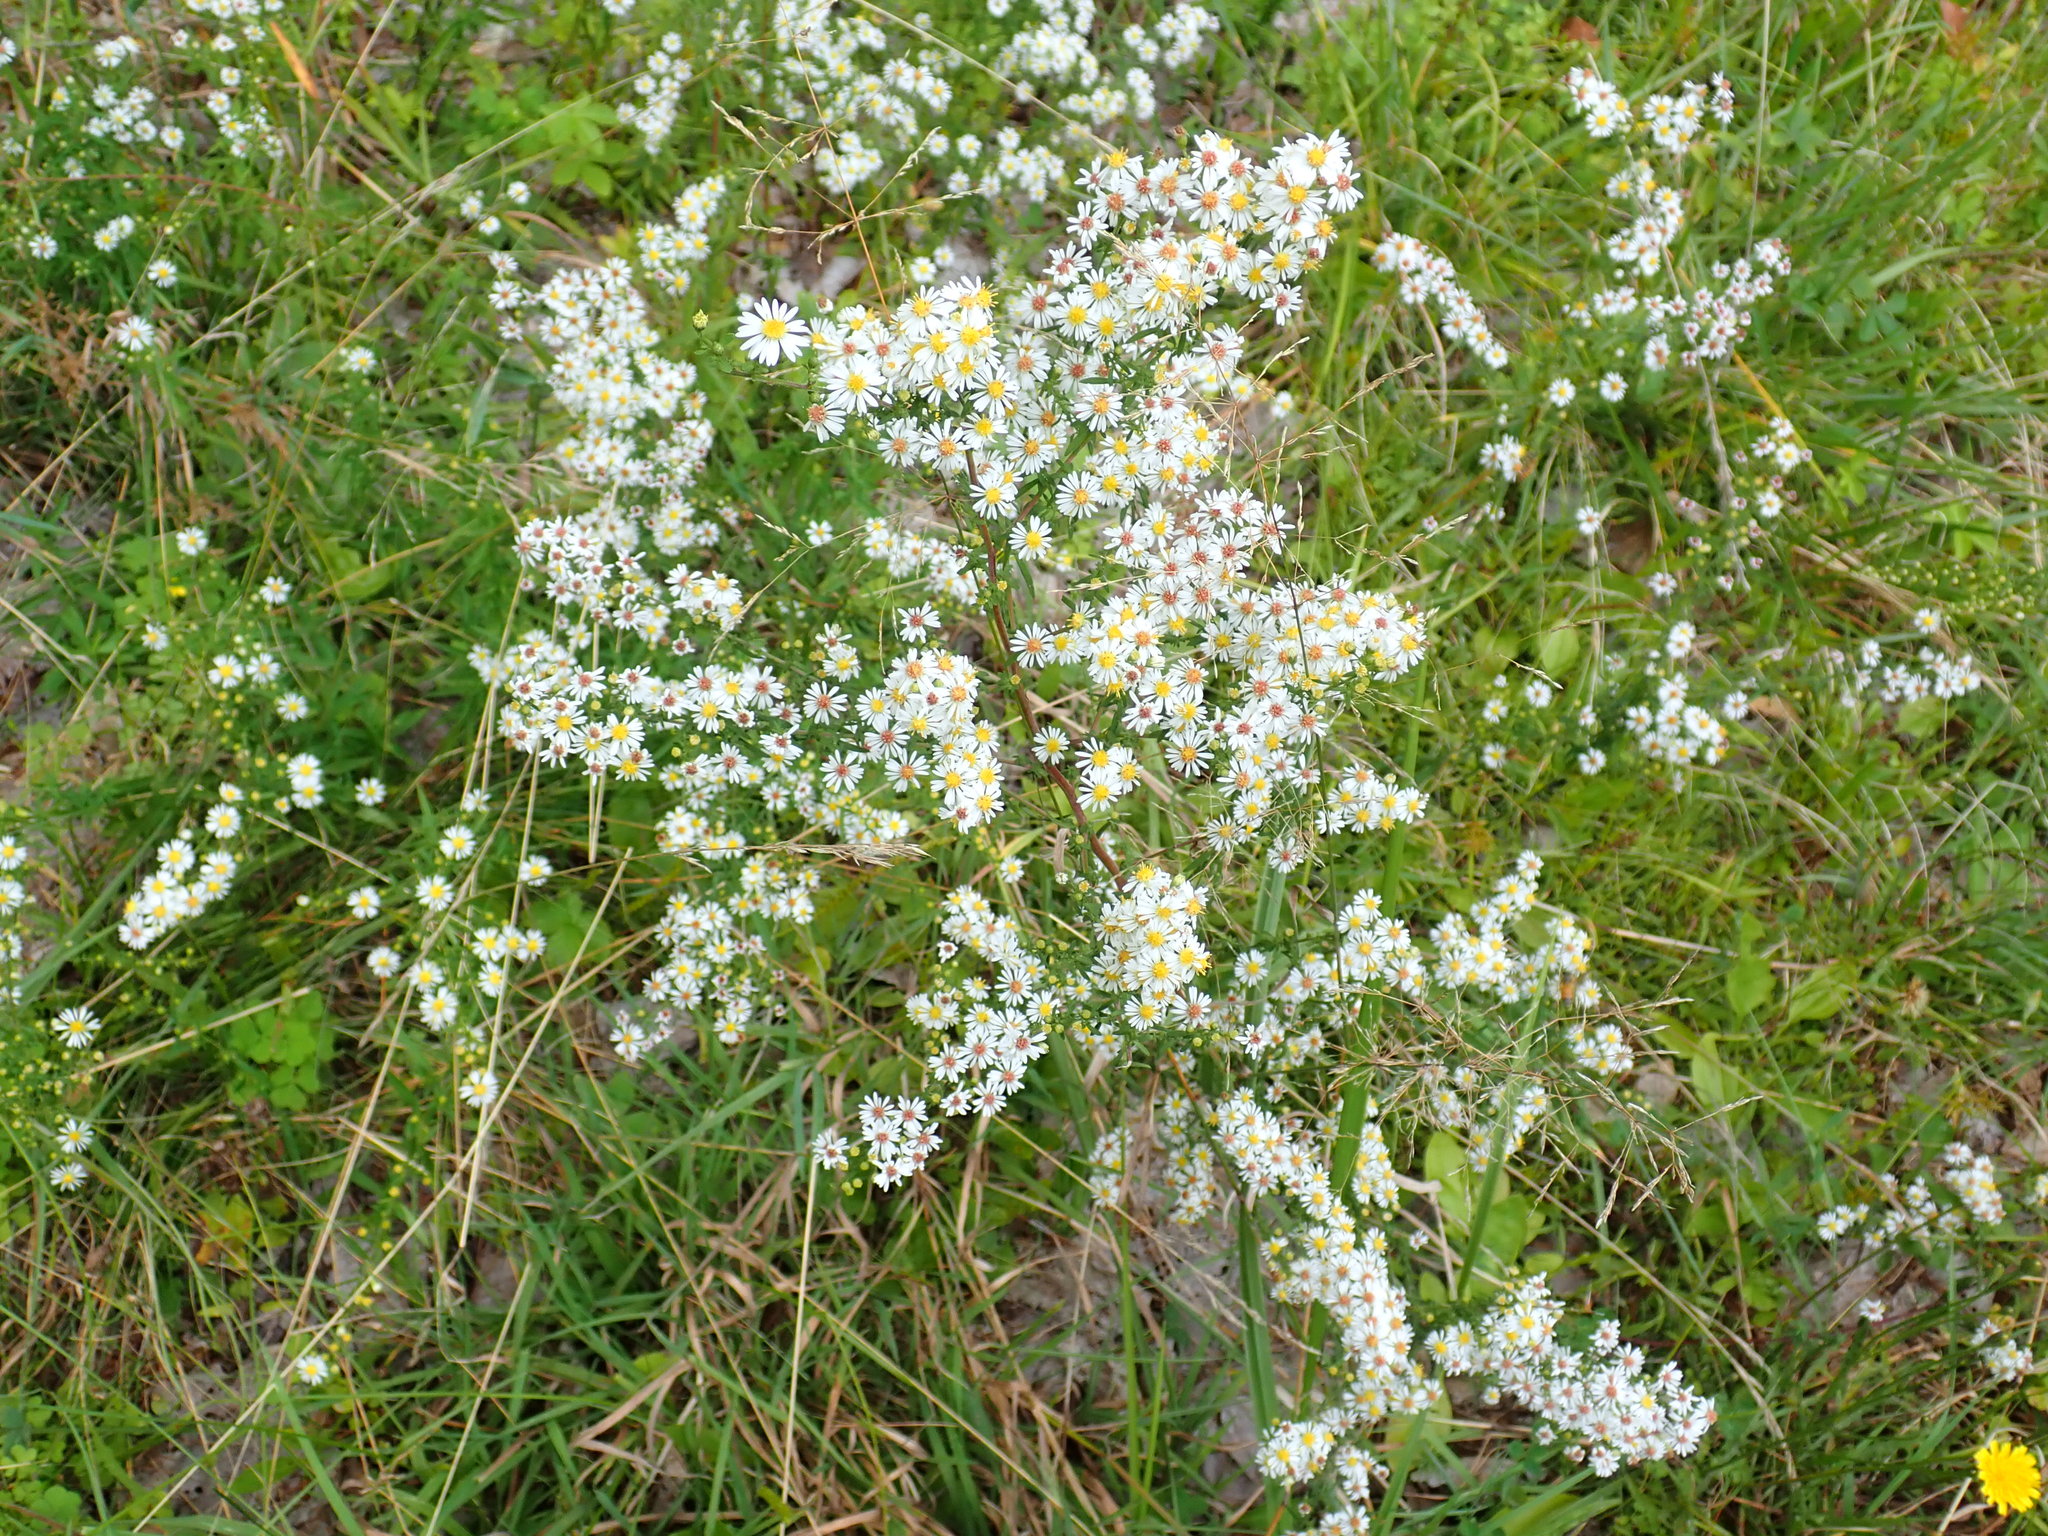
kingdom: Plantae
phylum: Tracheophyta
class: Magnoliopsida
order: Asterales
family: Asteraceae
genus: Symphyotrichum
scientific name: Symphyotrichum lateriflorum
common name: Calico aster
